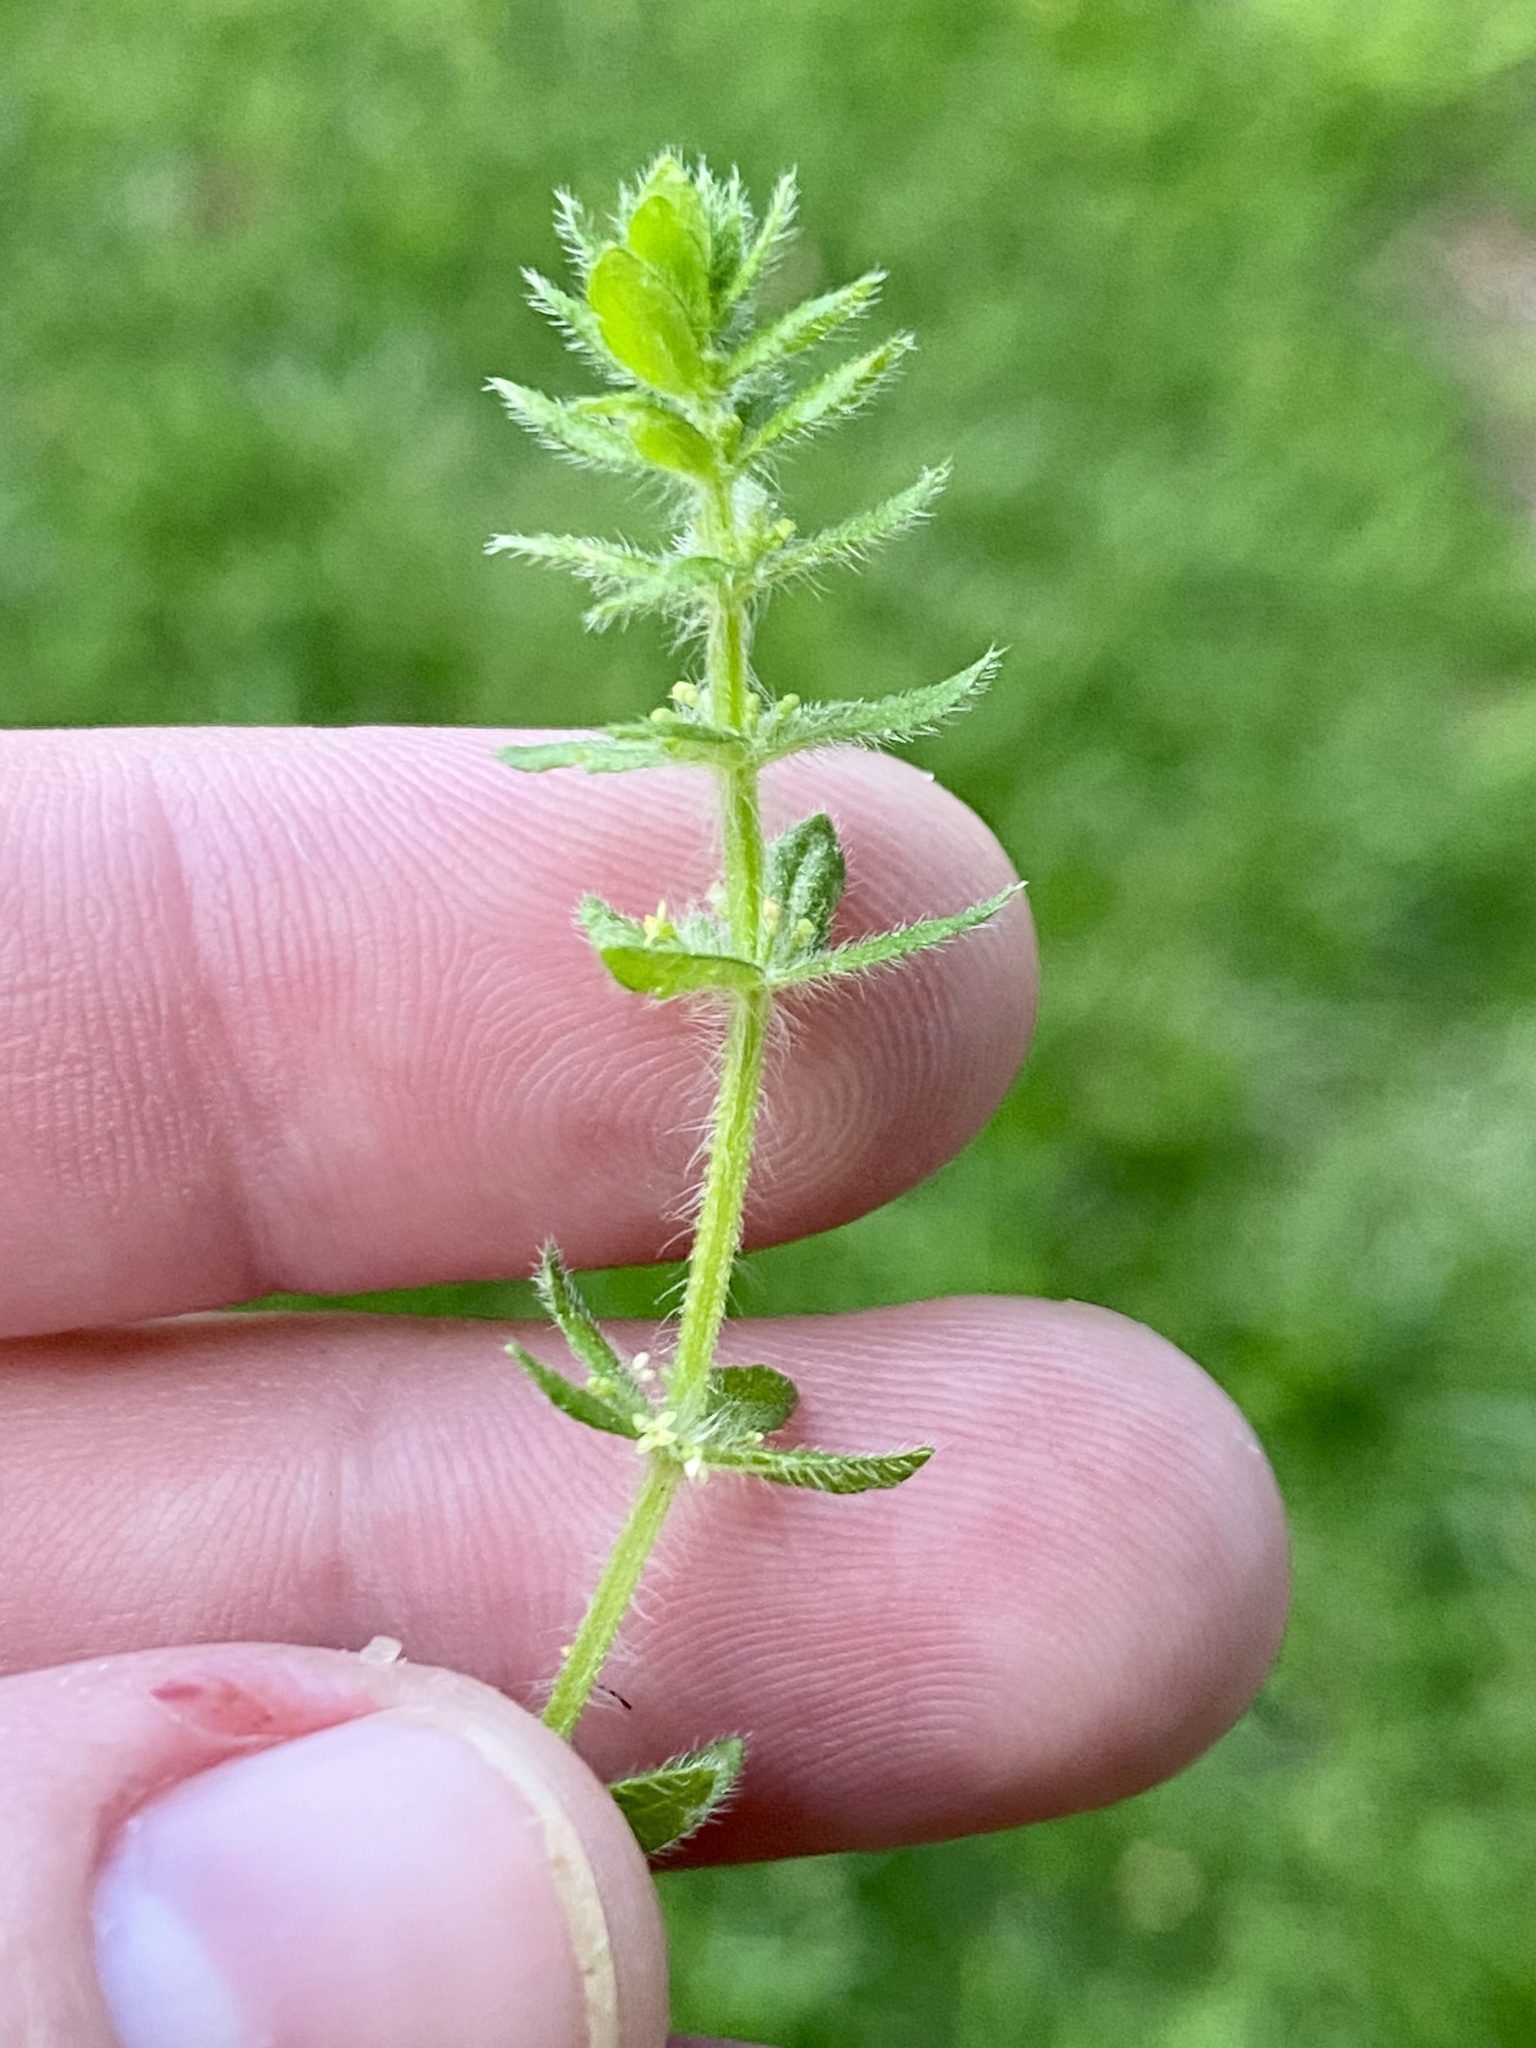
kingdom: Plantae
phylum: Tracheophyta
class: Magnoliopsida
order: Gentianales
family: Rubiaceae
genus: Cruciata
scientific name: Cruciata pedemontana
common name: Piedmont bedstraw
